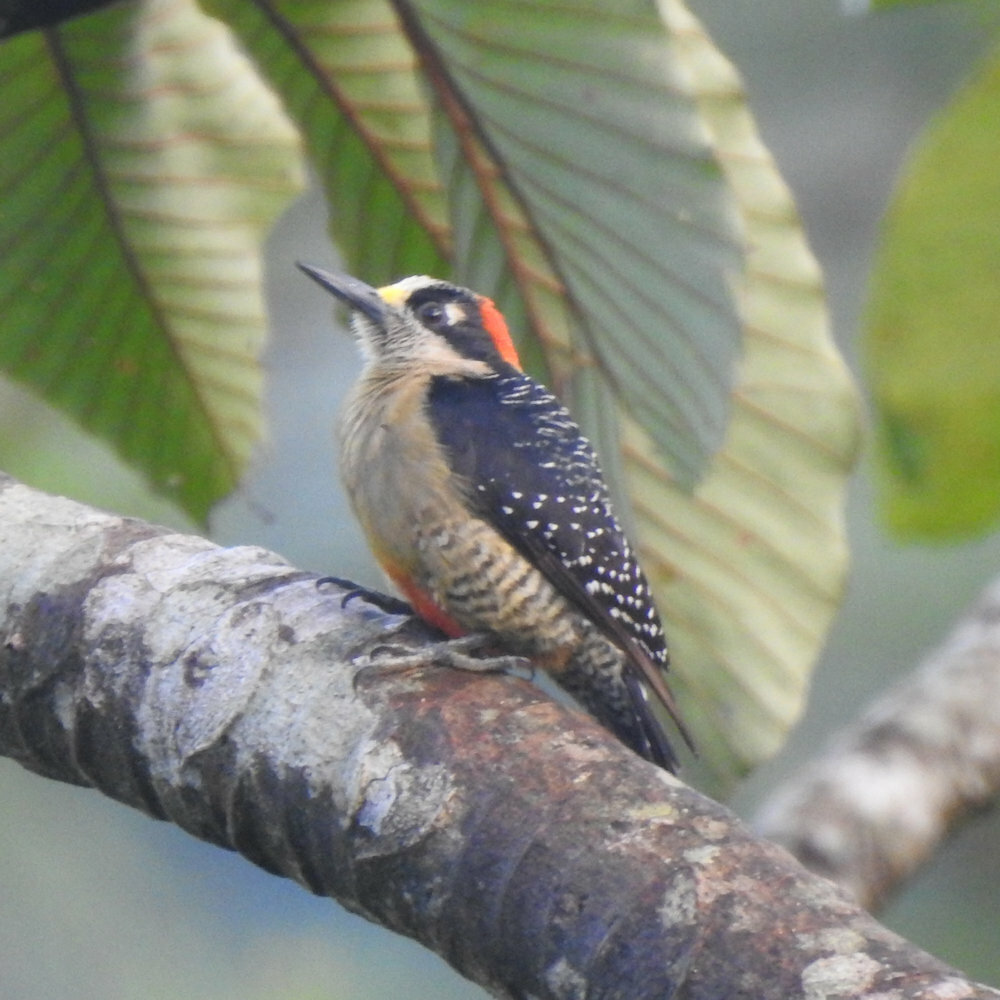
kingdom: Animalia
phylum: Chordata
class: Aves
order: Piciformes
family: Picidae
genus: Melanerpes
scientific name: Melanerpes pucherani
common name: Black-cheeked woodpecker
